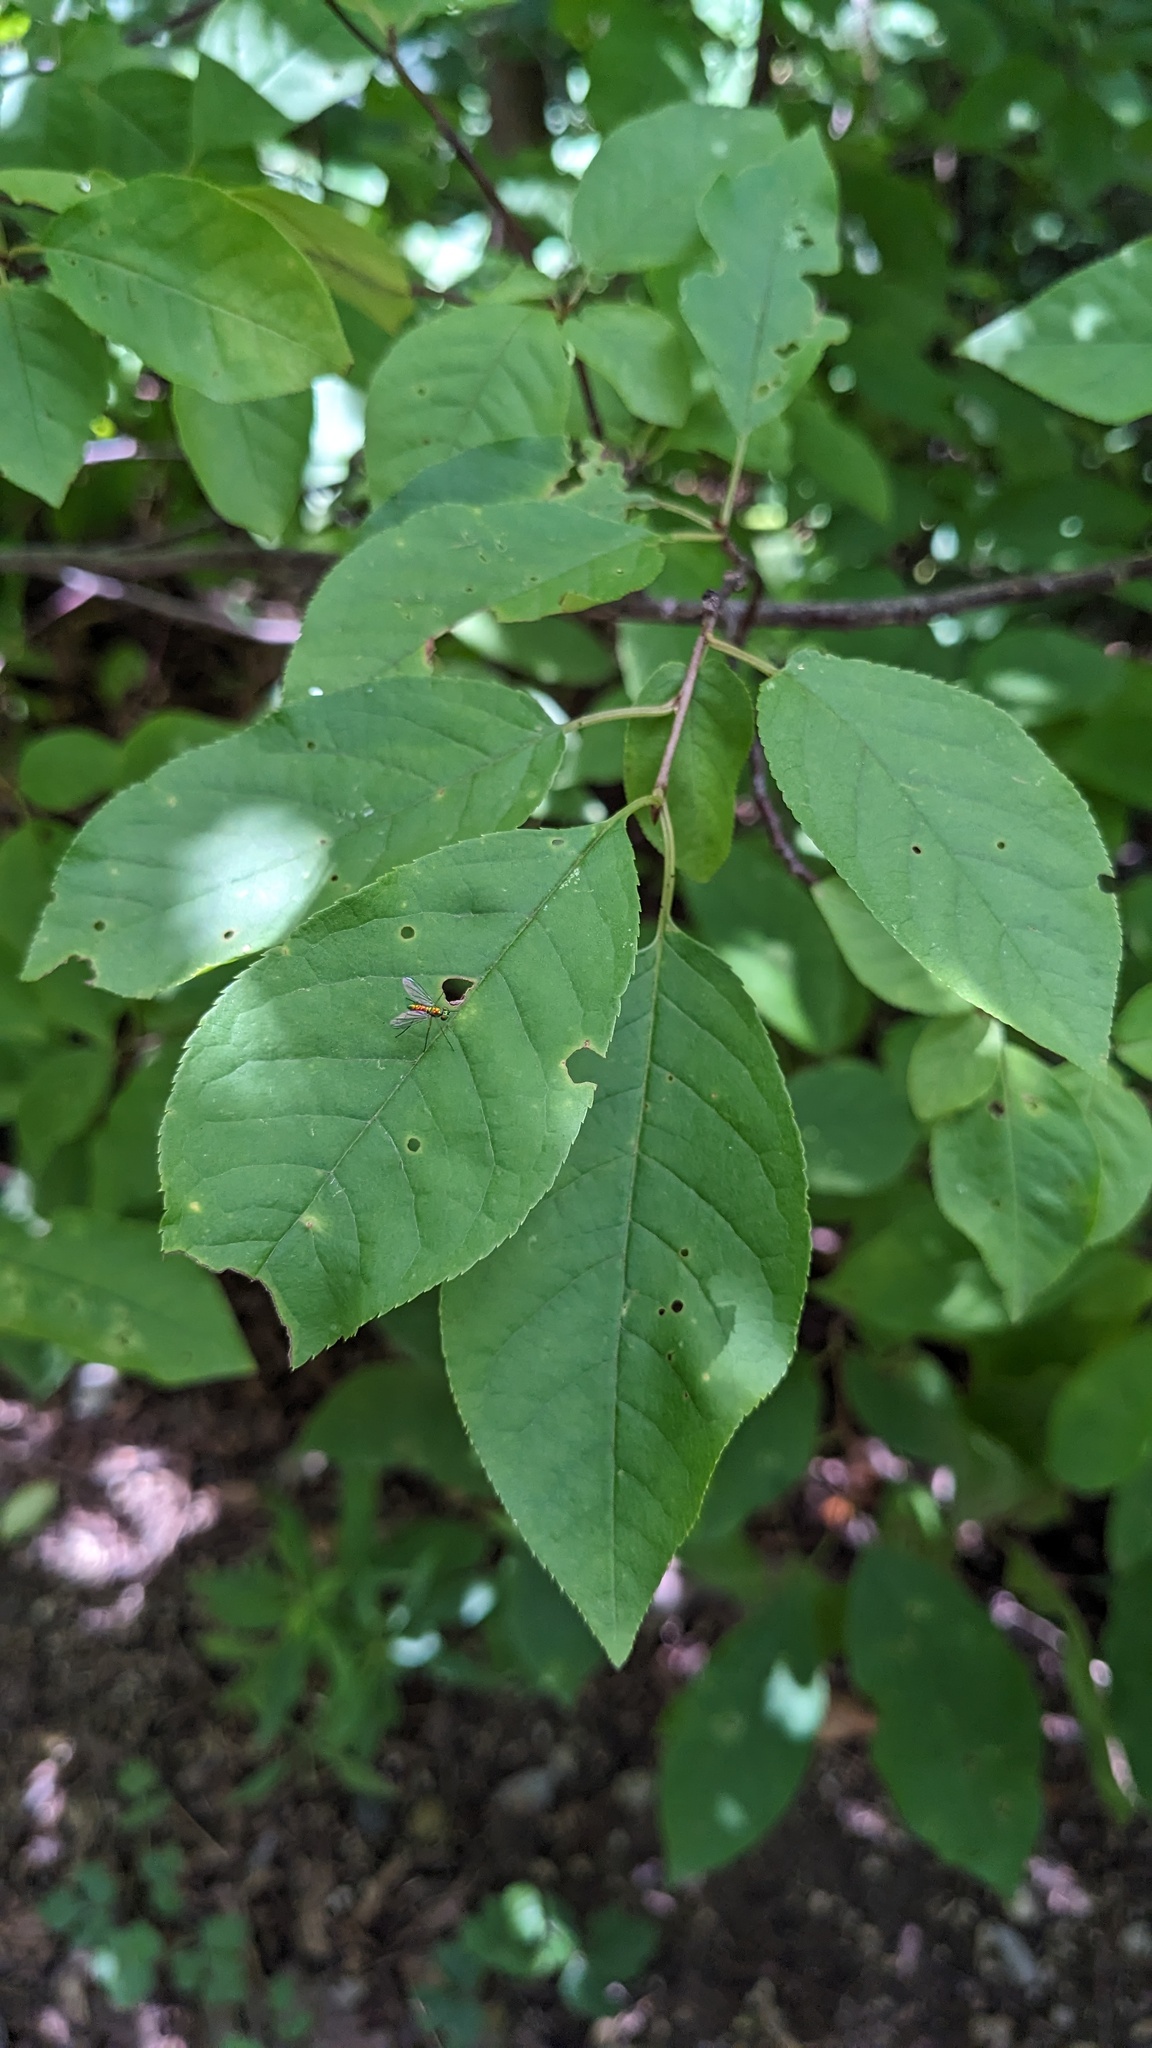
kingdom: Plantae
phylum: Tracheophyta
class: Magnoliopsida
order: Rosales
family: Rosaceae
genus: Prunus
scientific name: Prunus virginiana
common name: Chokecherry
